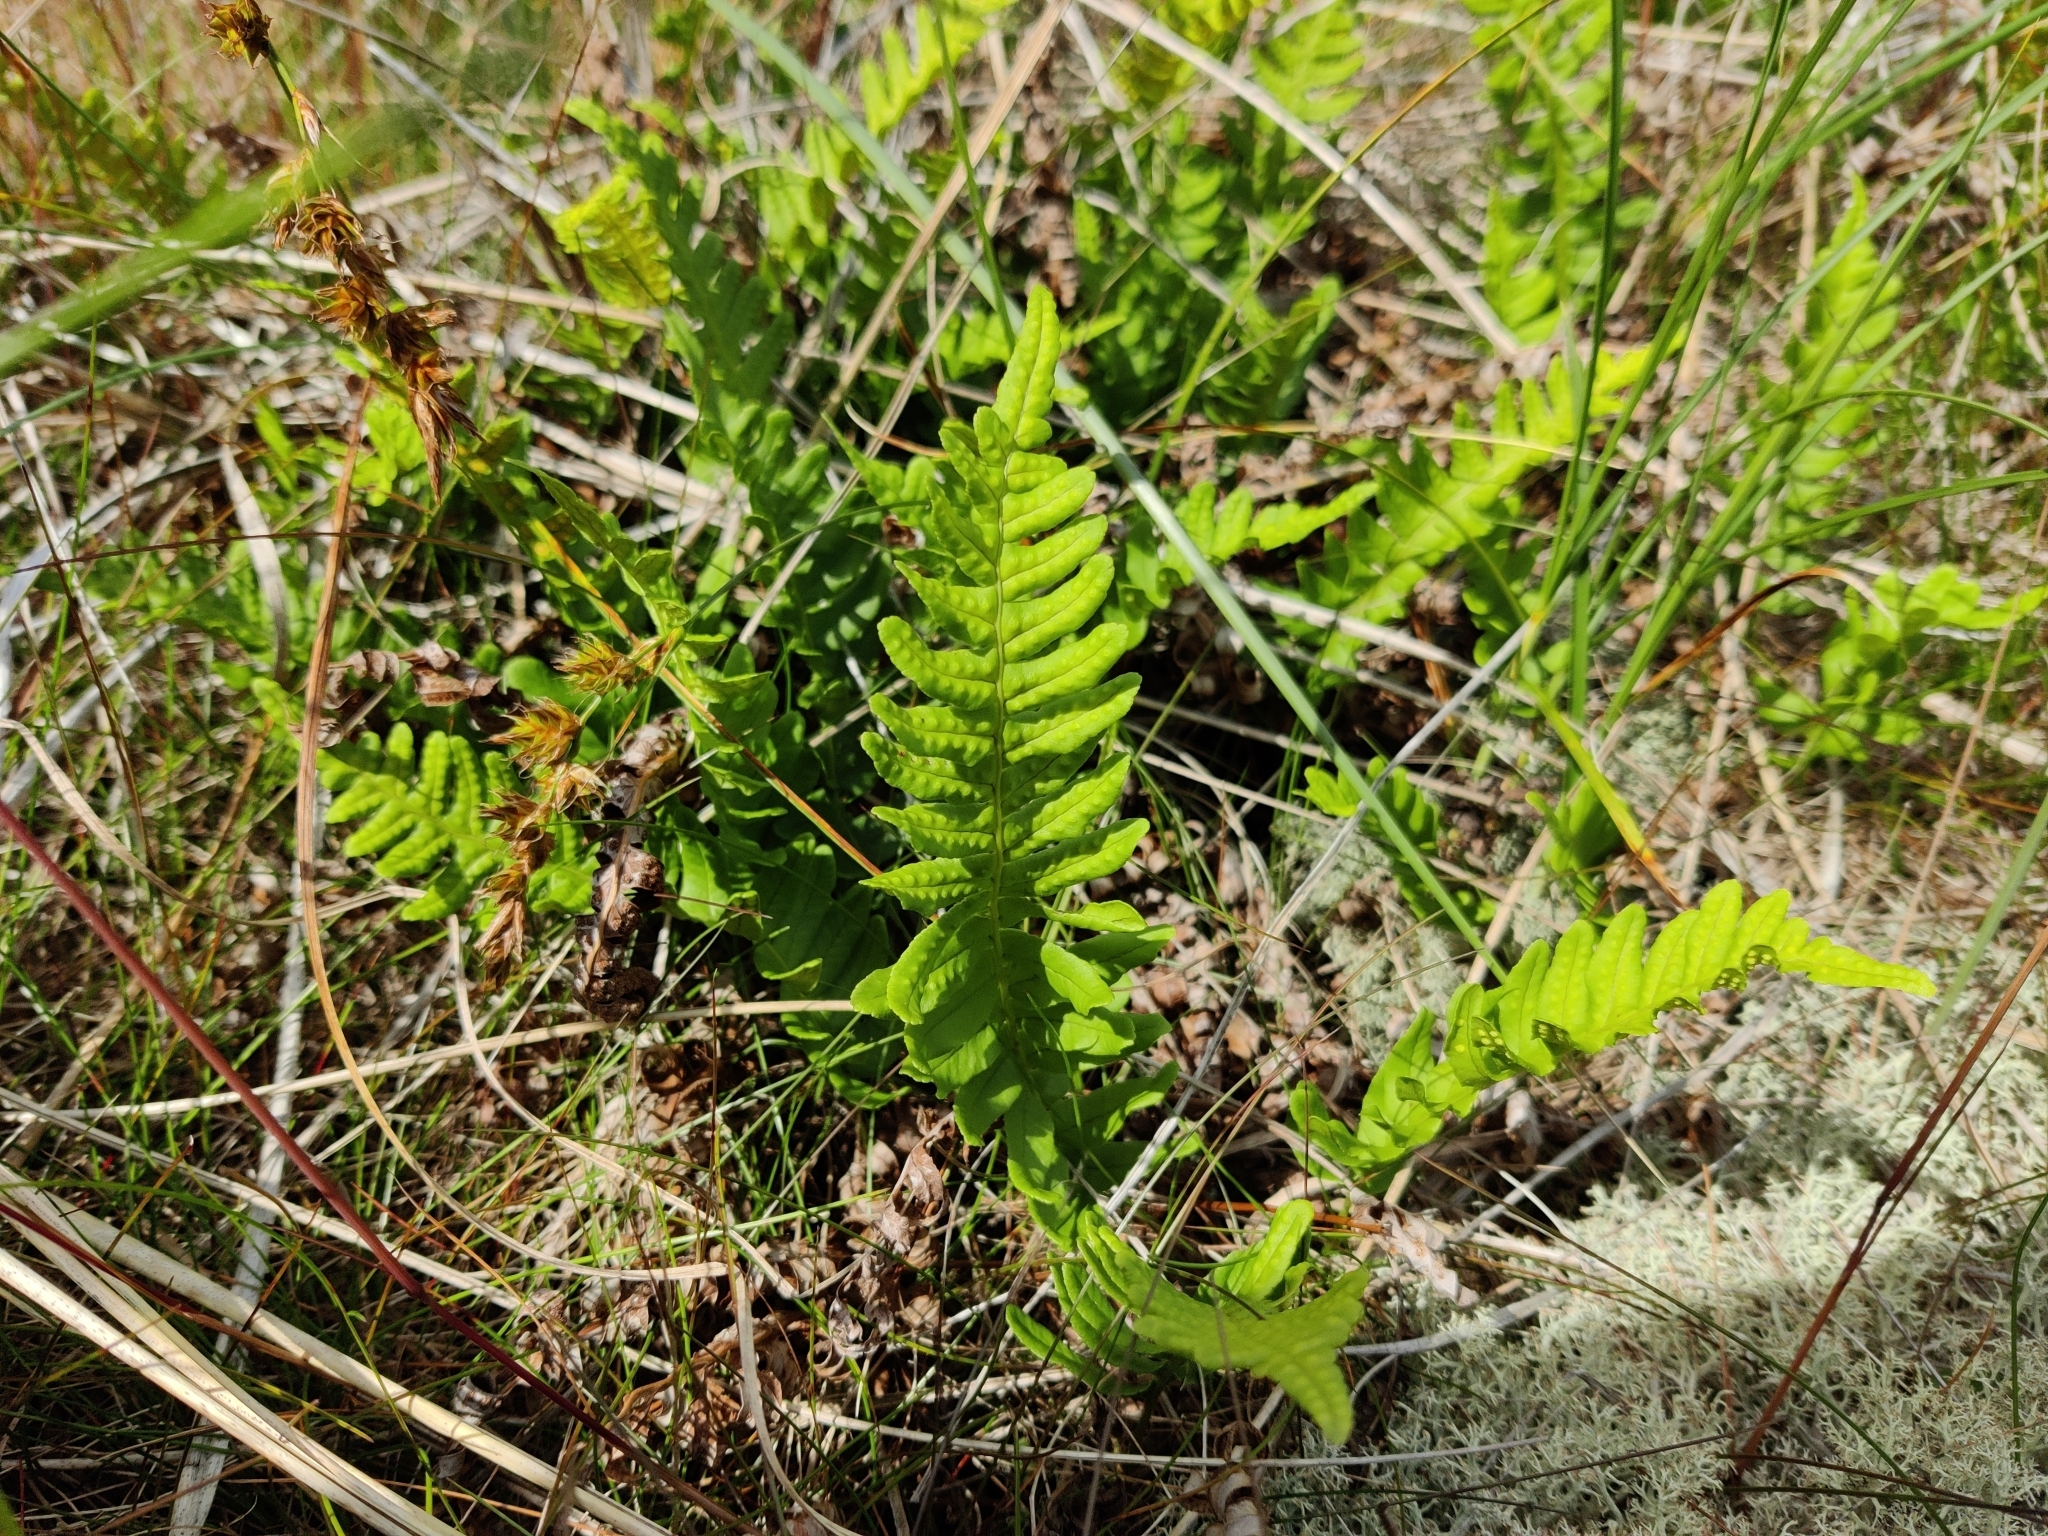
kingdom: Plantae
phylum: Tracheophyta
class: Polypodiopsida
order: Polypodiales
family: Polypodiaceae
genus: Polypodium
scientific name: Polypodium vulgare
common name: Common polypody
